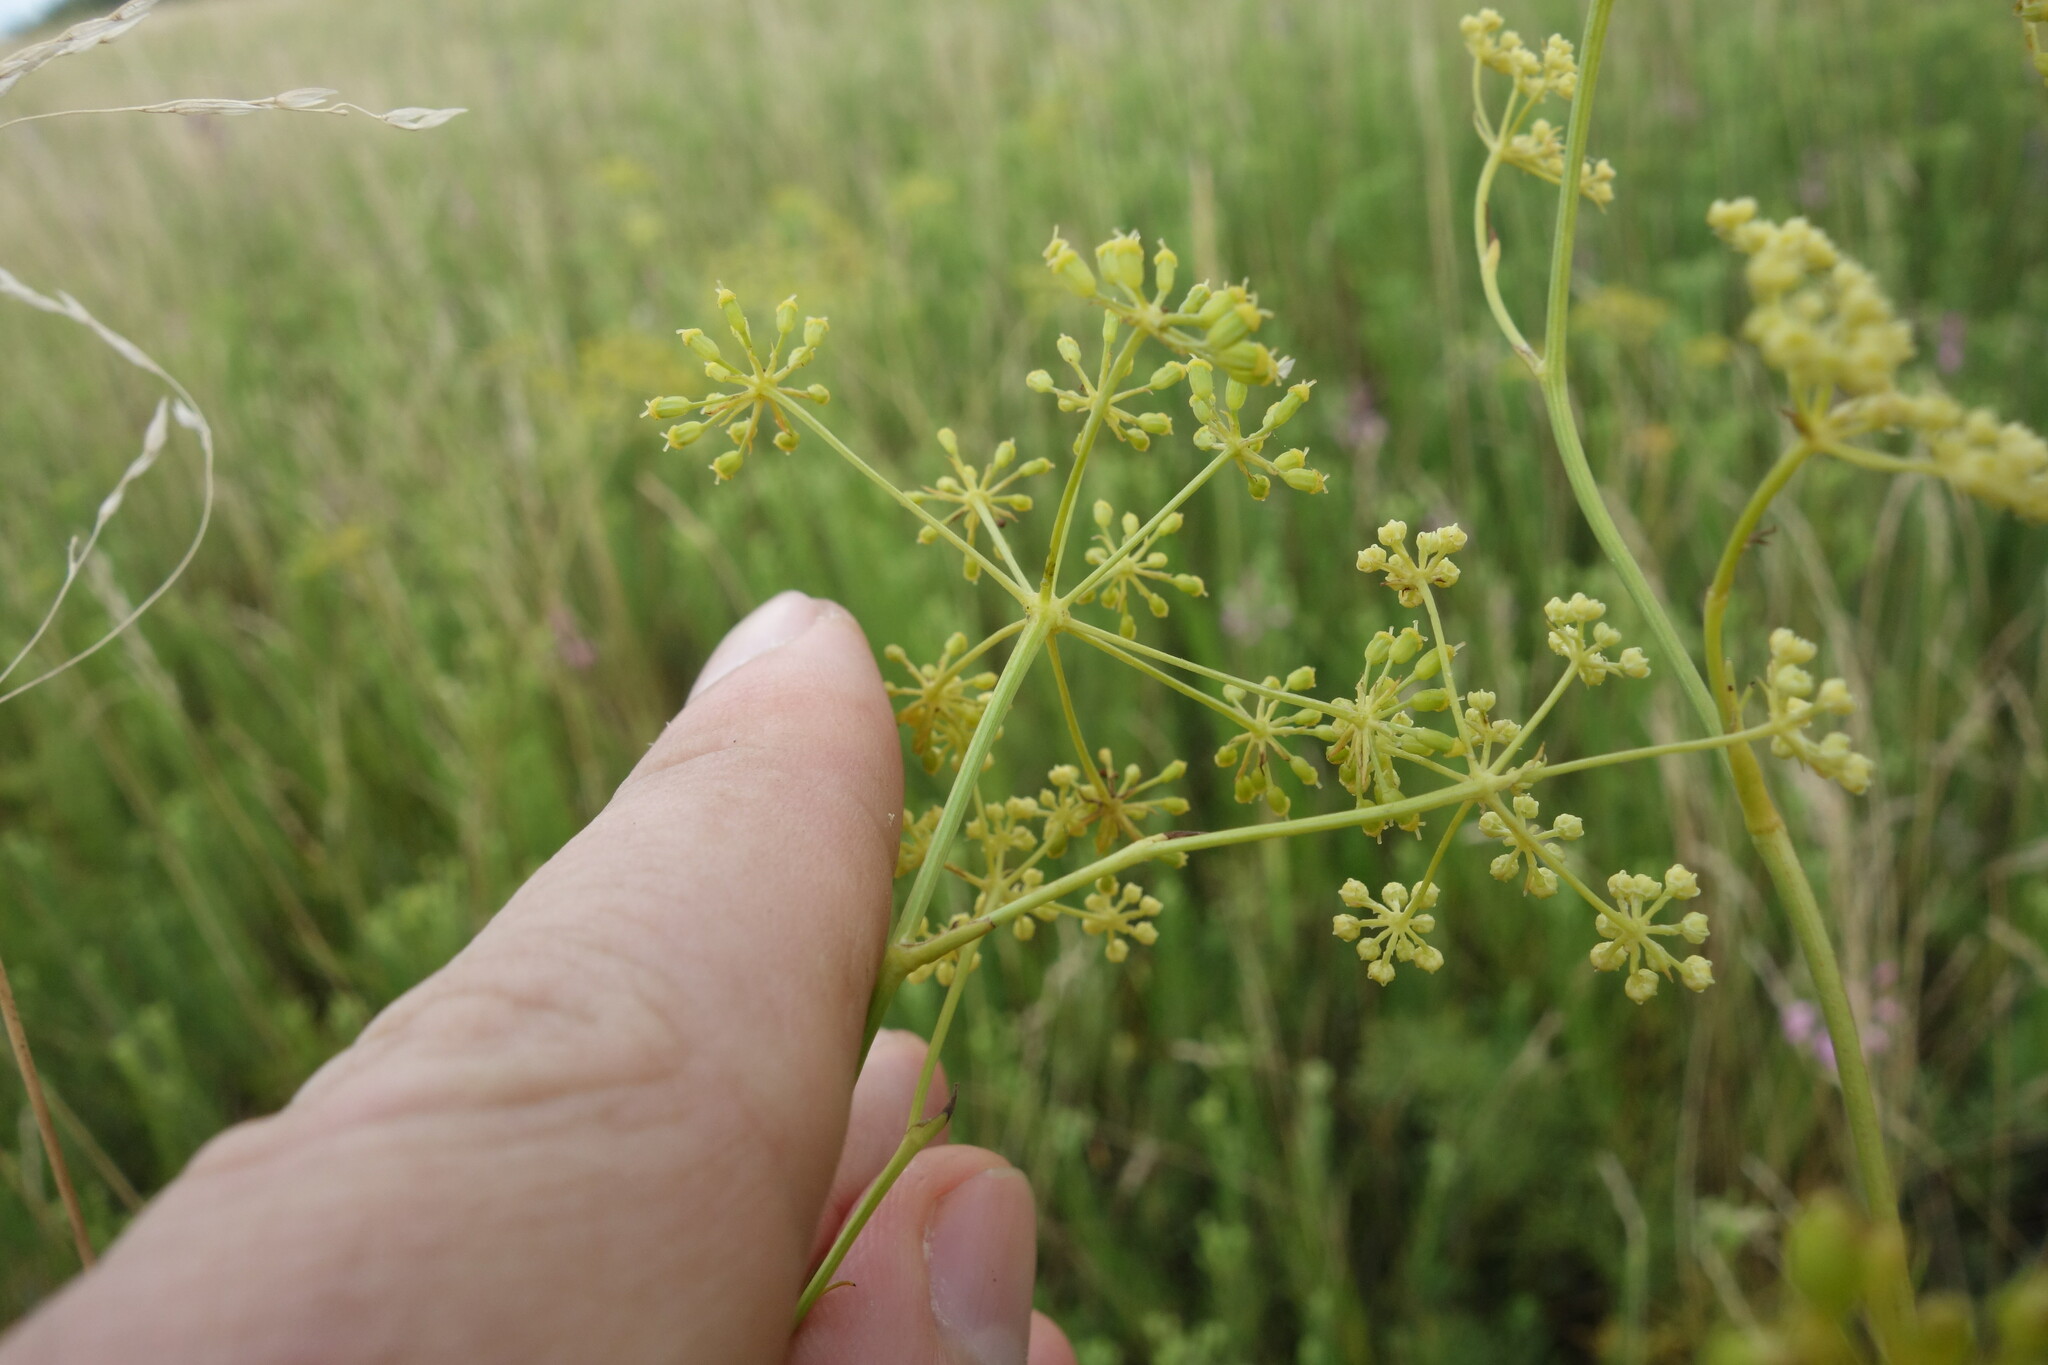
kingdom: Plantae
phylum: Tracheophyta
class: Magnoliopsida
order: Apiales
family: Apiaceae
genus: Silaum
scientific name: Silaum silaus
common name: Pepper-saxifrage
